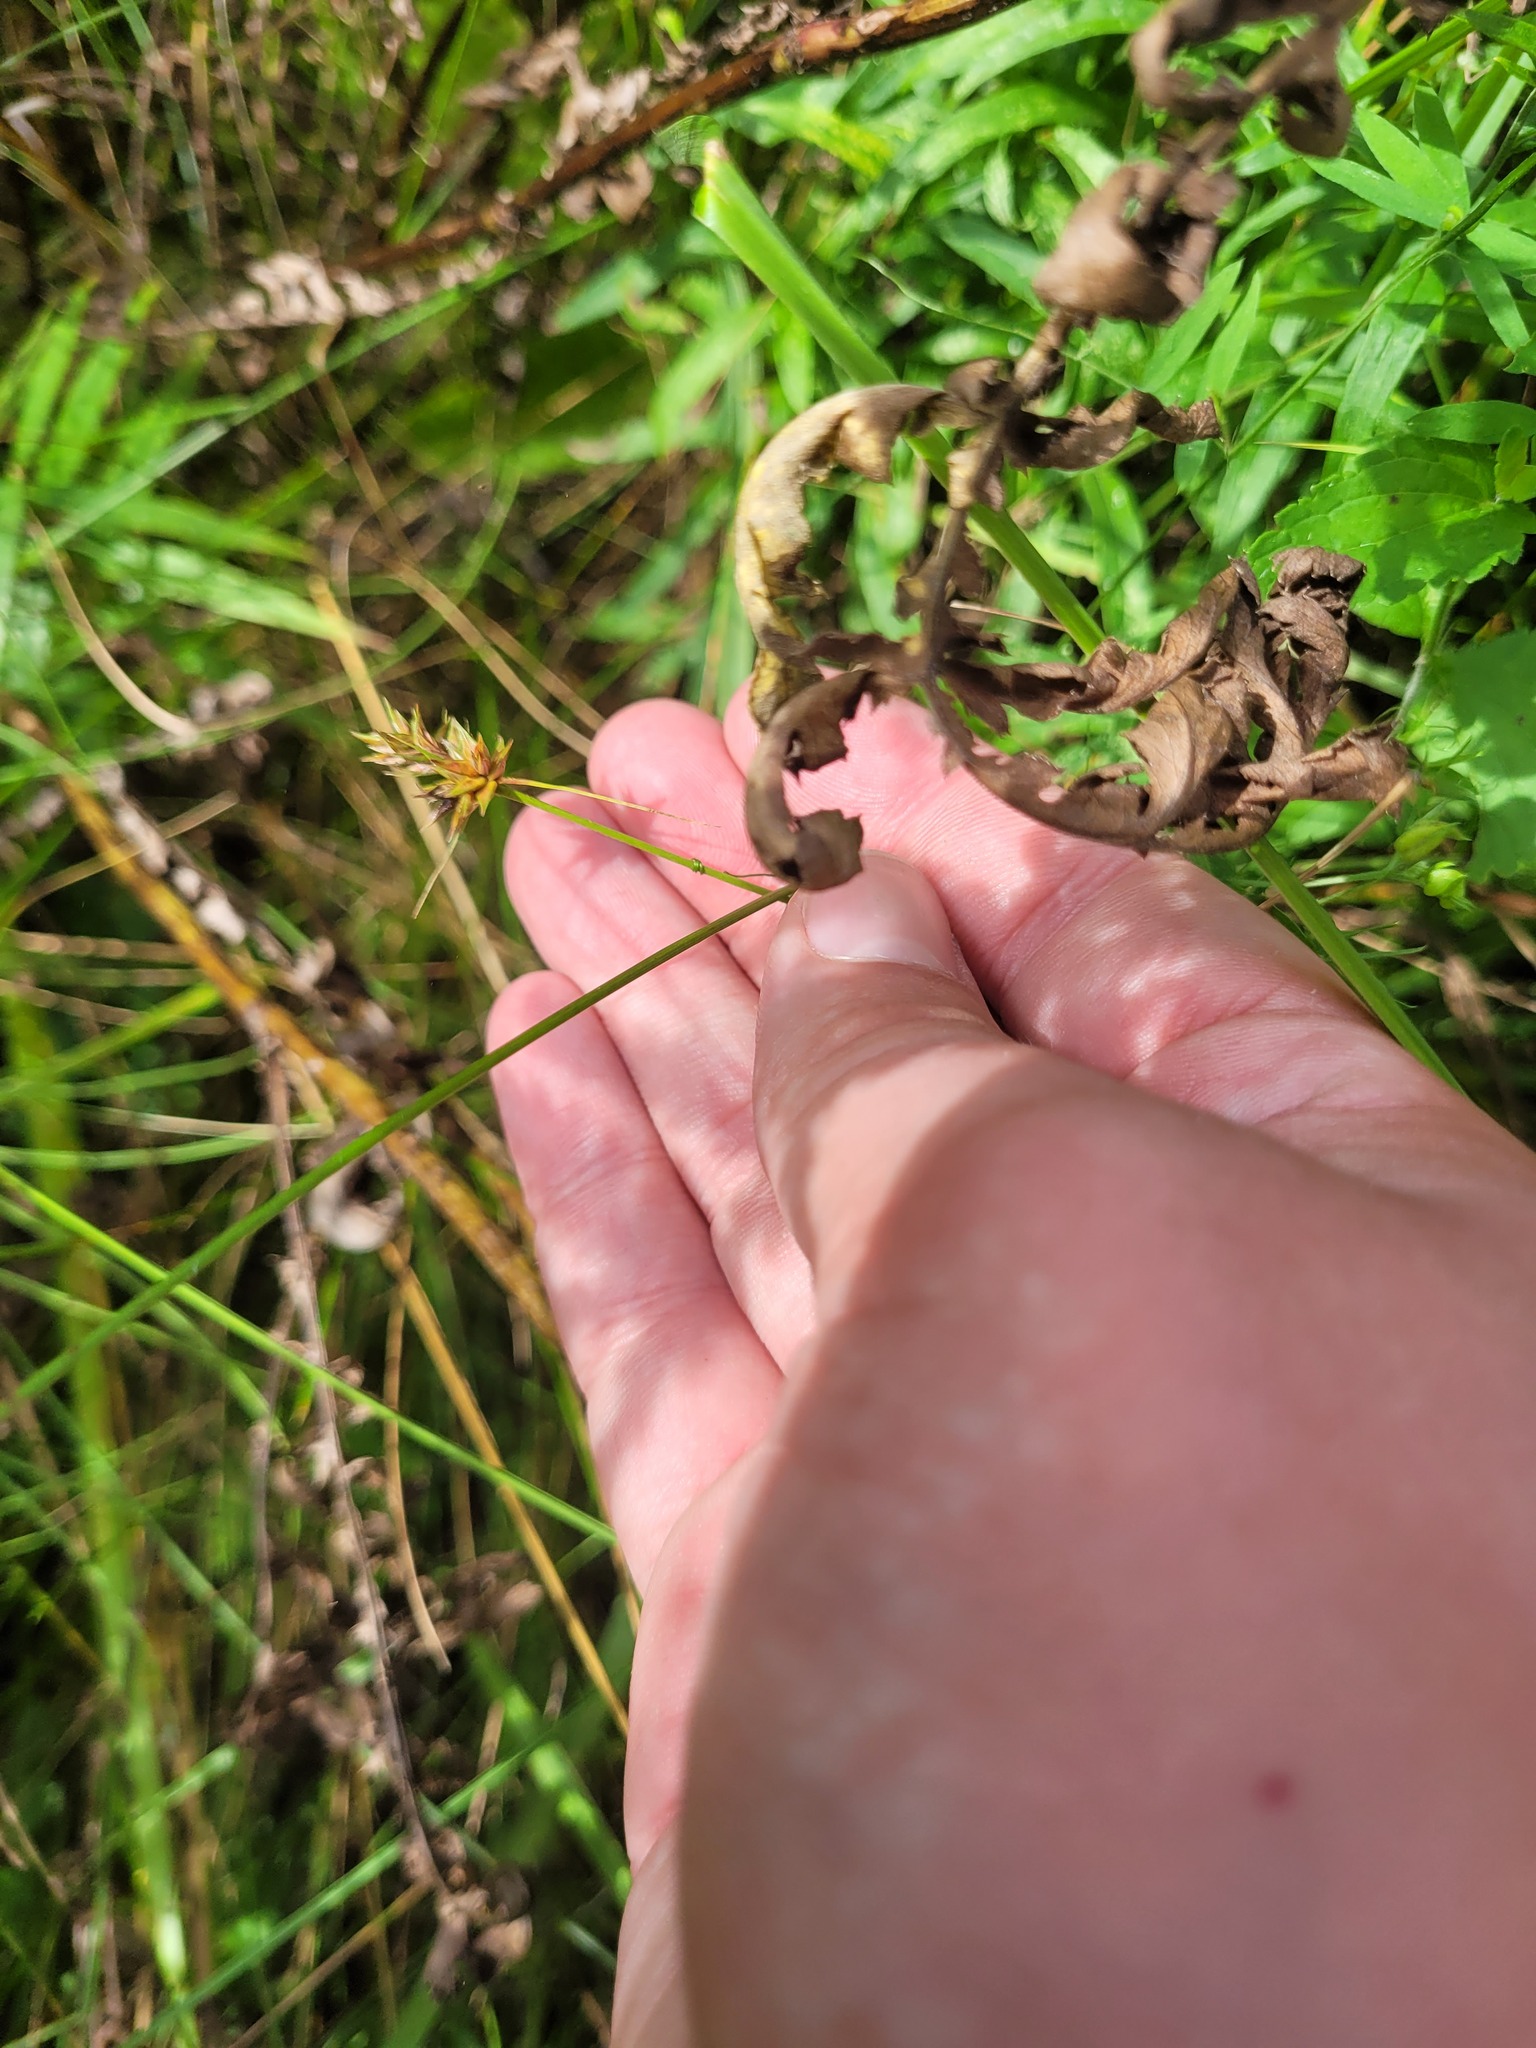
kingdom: Plantae
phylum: Tracheophyta
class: Liliopsida
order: Poales
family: Cyperaceae
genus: Carex
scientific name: Carex spicata
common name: Spiked sedge
